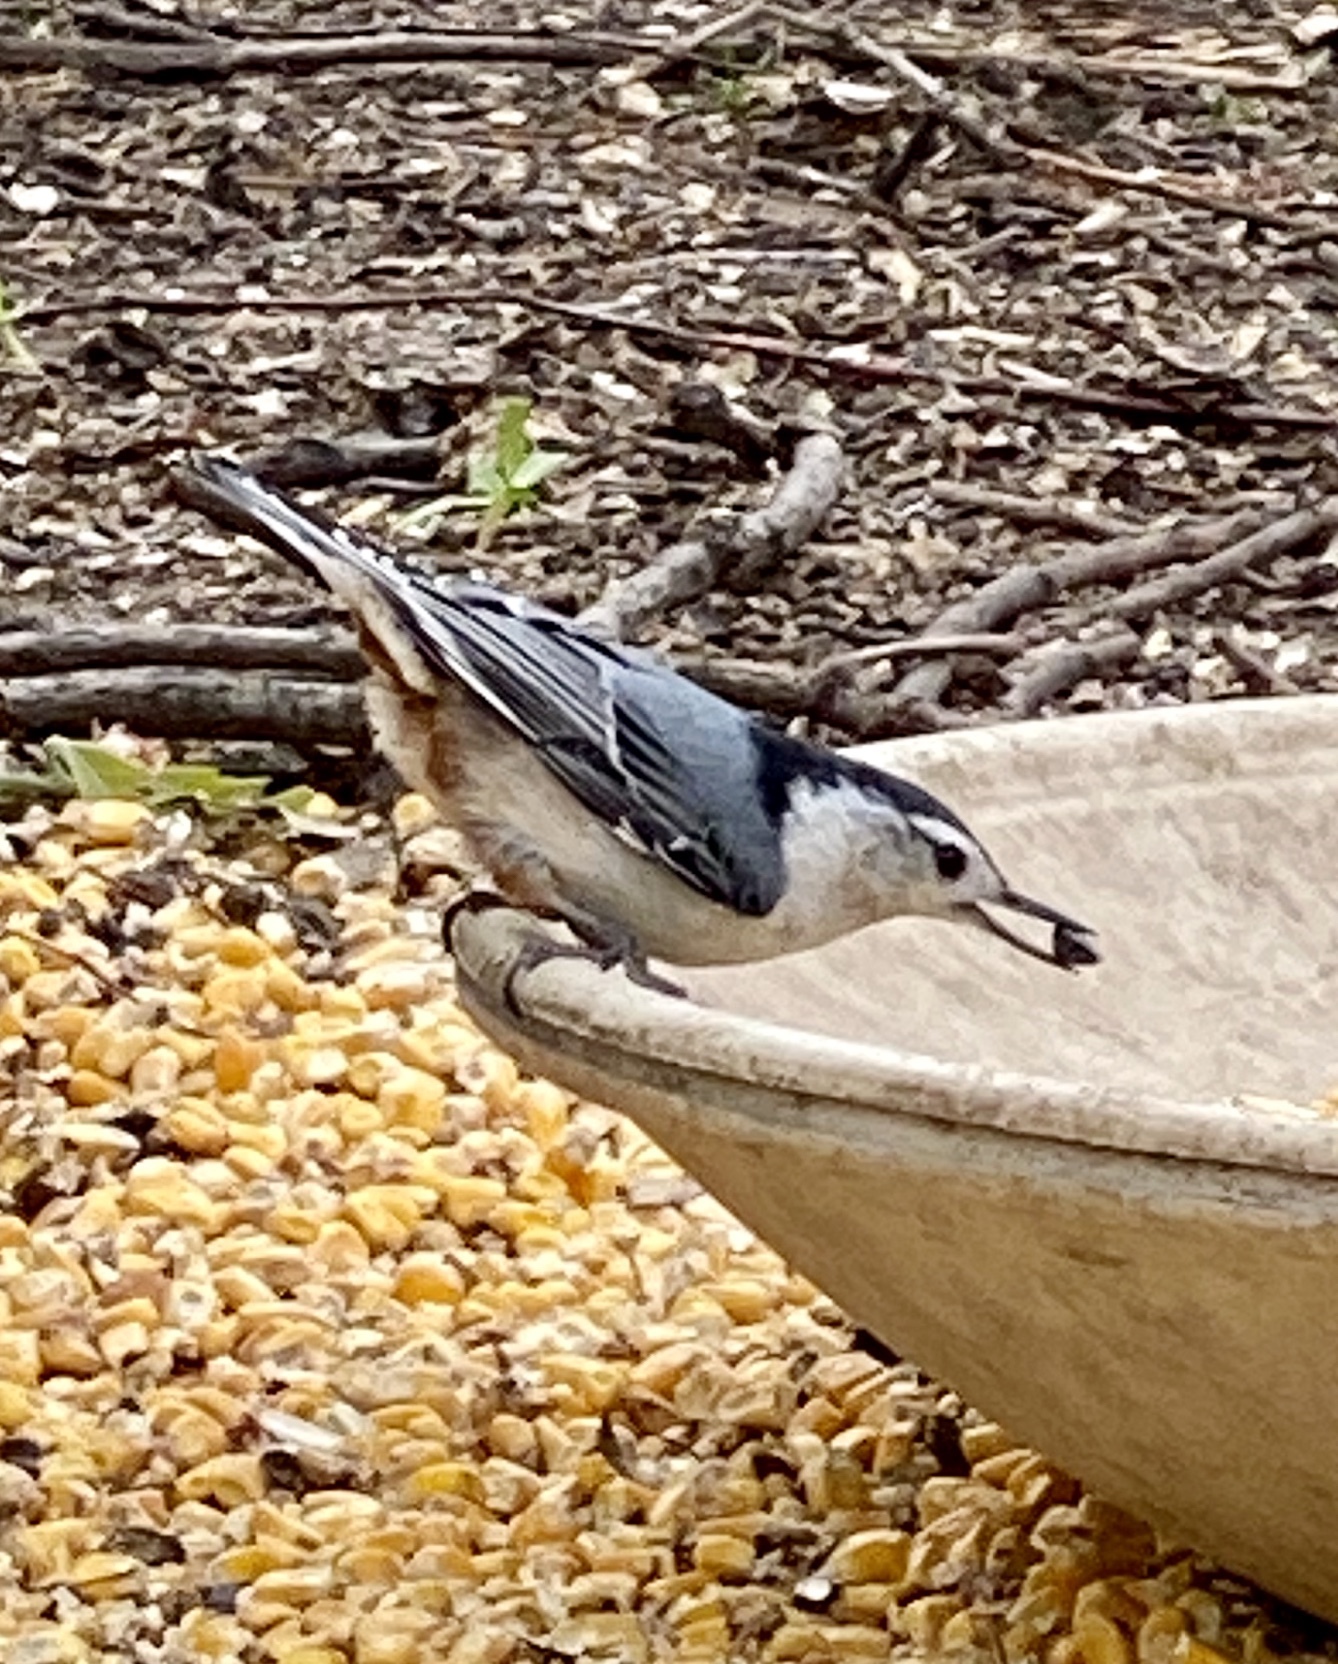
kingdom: Animalia
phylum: Chordata
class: Aves
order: Passeriformes
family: Sittidae
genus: Sitta
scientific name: Sitta carolinensis
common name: White-breasted nuthatch
